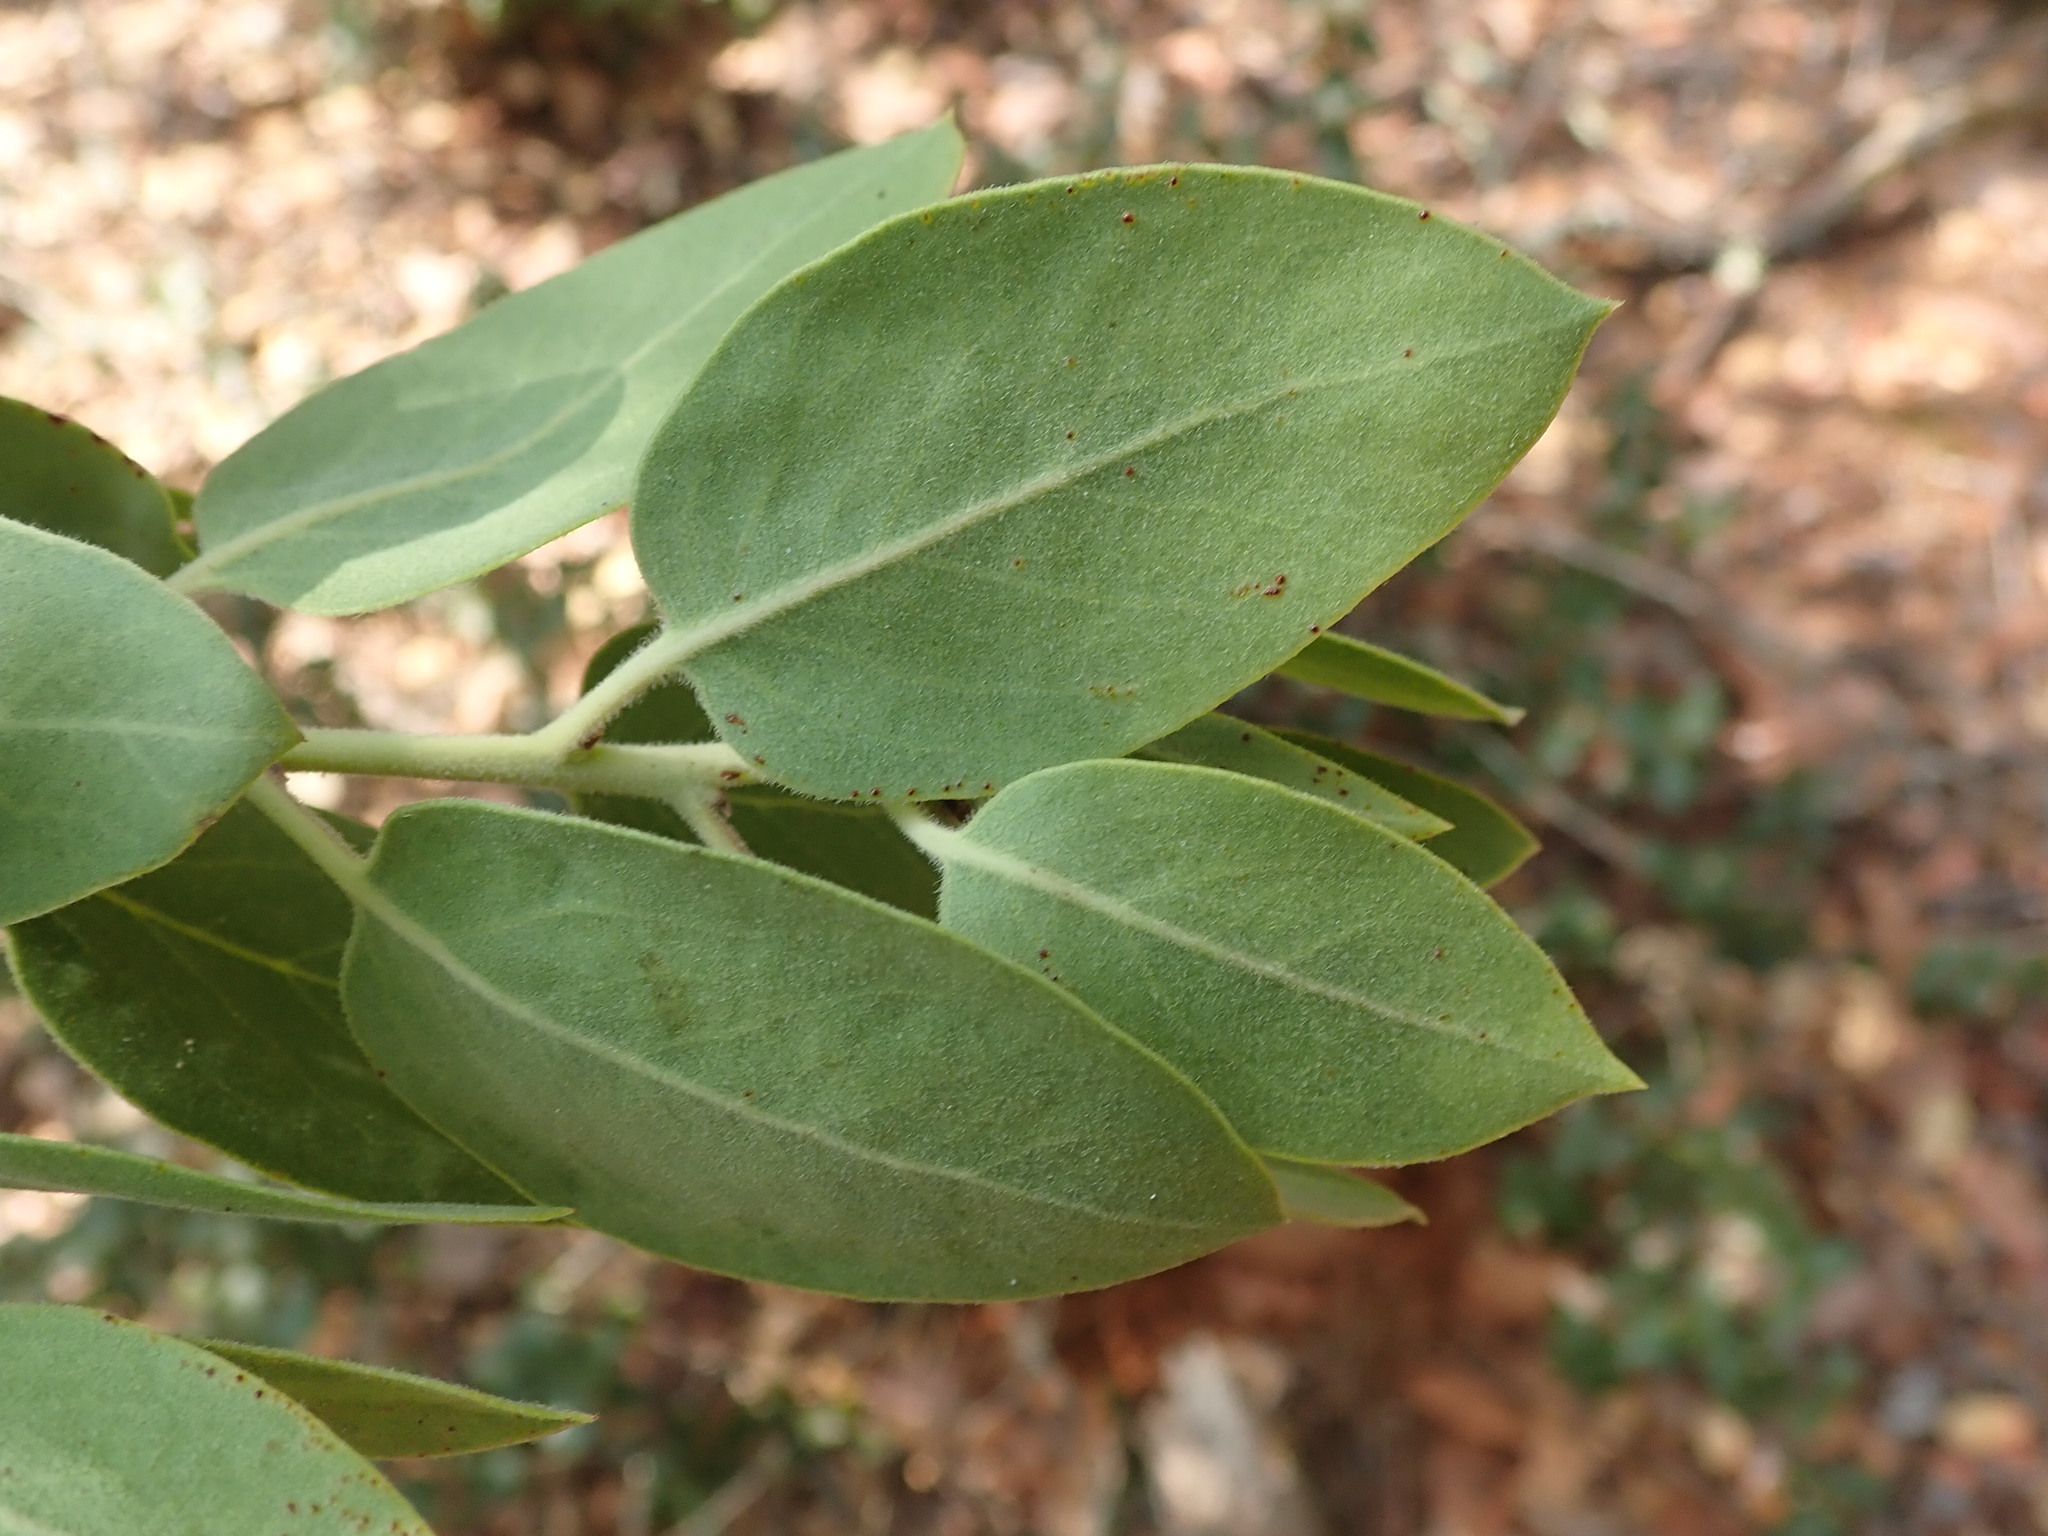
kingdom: Plantae
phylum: Tracheophyta
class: Magnoliopsida
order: Ericales
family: Ericaceae
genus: Arctostaphylos
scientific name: Arctostaphylos manzanita
